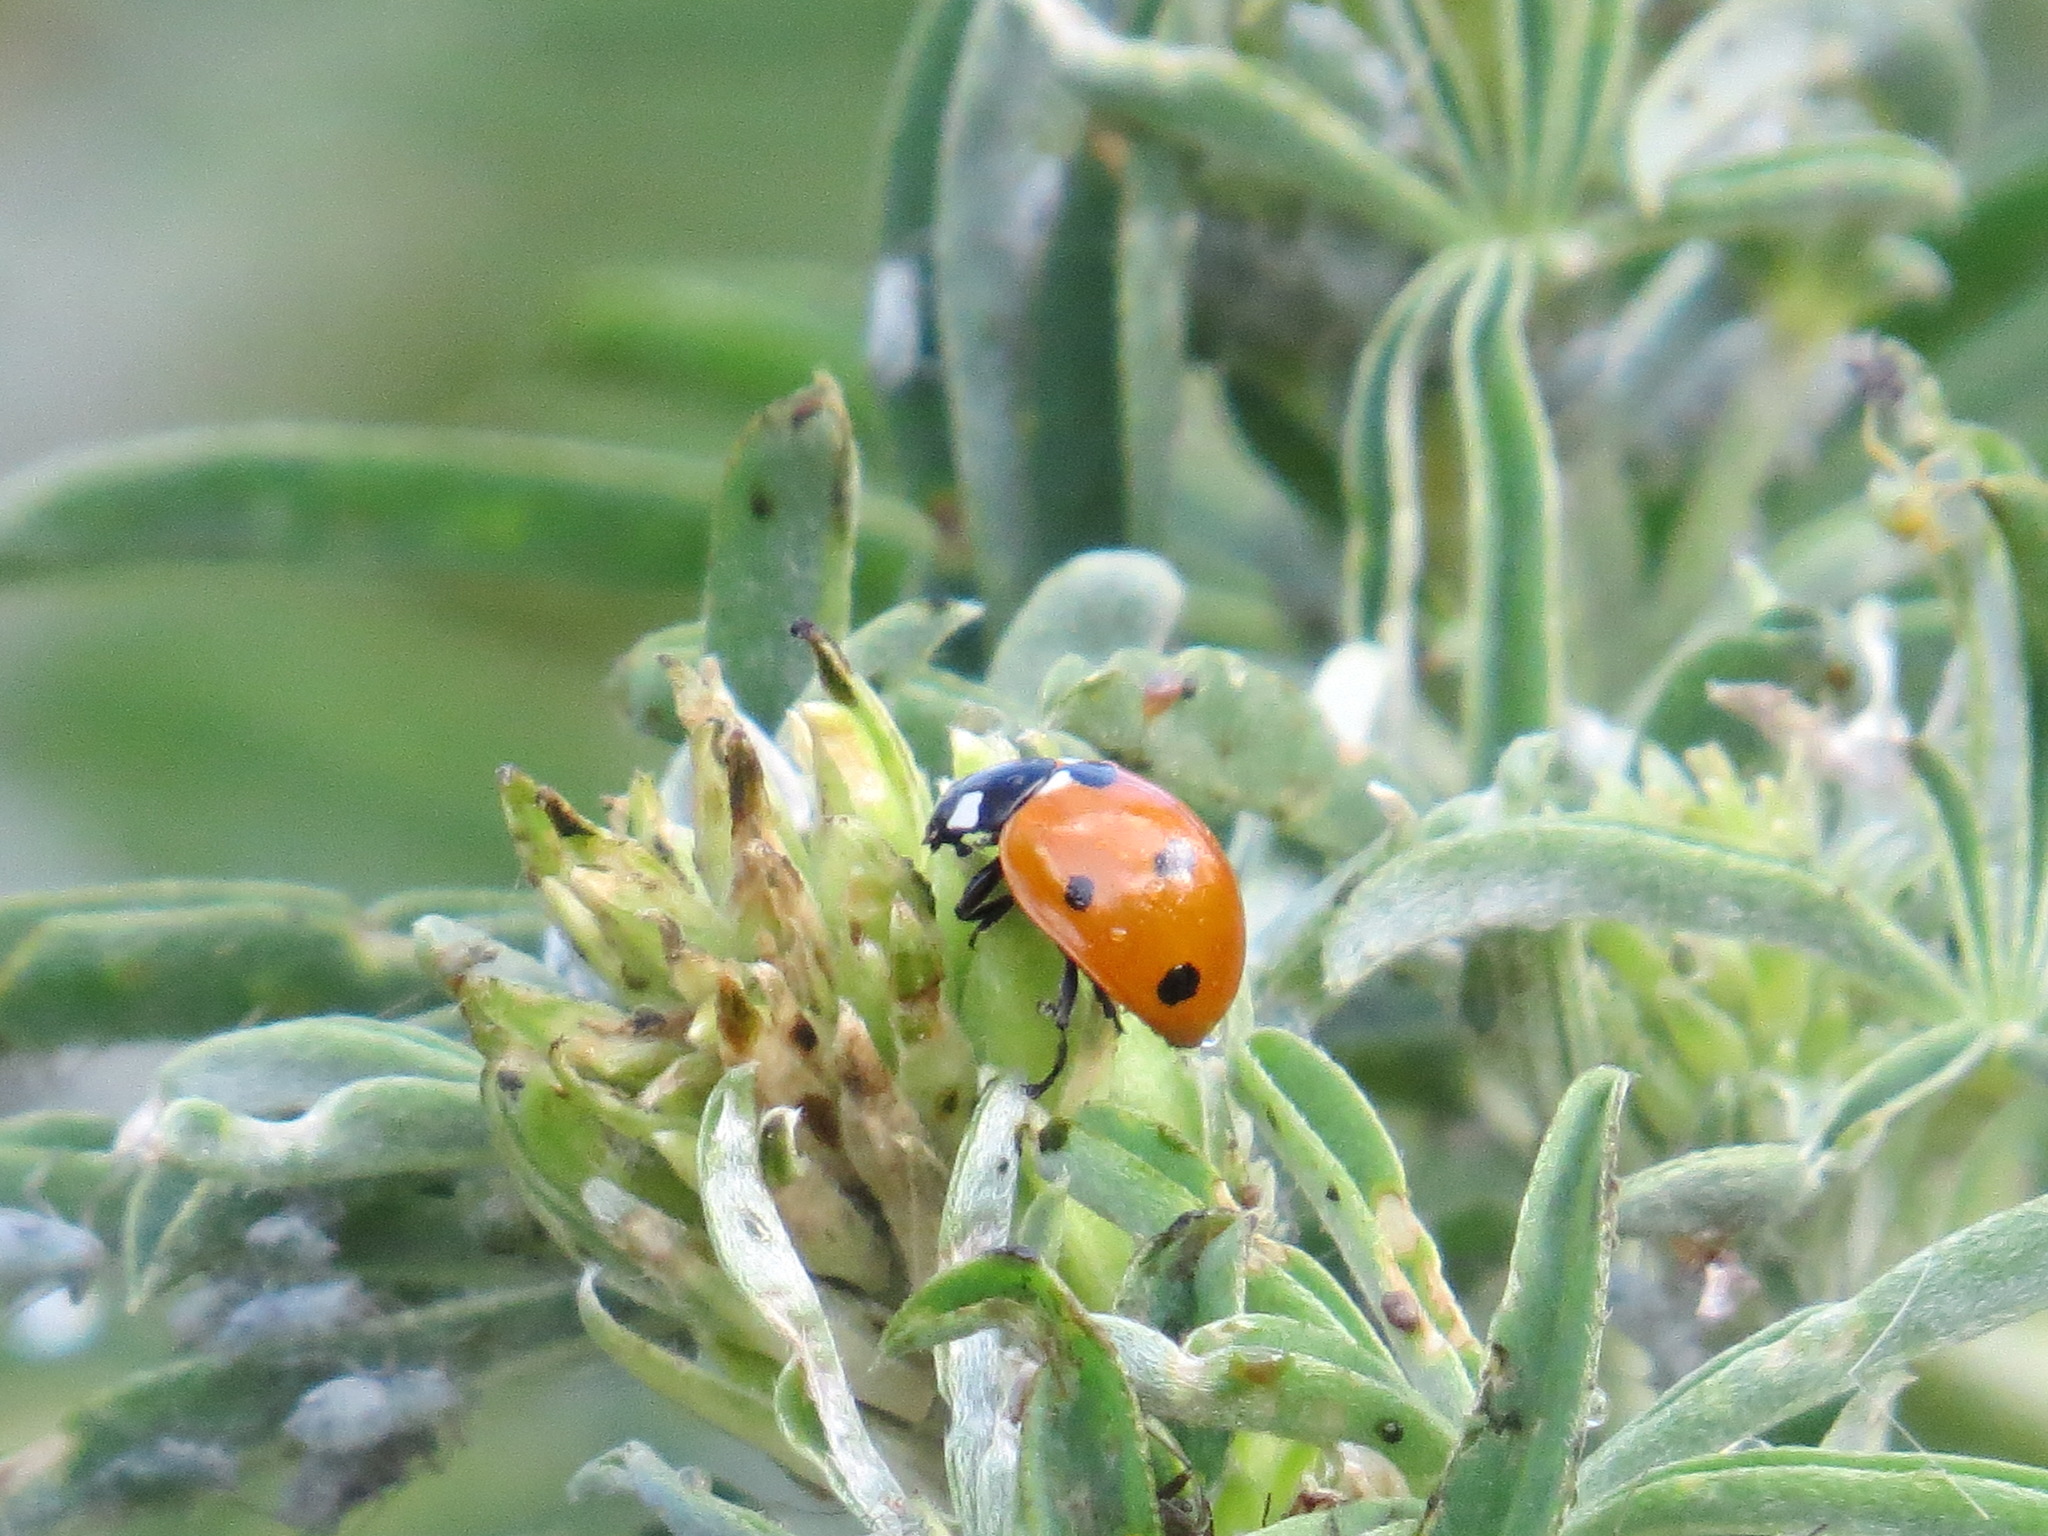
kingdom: Animalia
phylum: Arthropoda
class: Insecta
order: Coleoptera
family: Coccinellidae
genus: Coccinella
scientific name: Coccinella septempunctata
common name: Sevenspotted lady beetle
